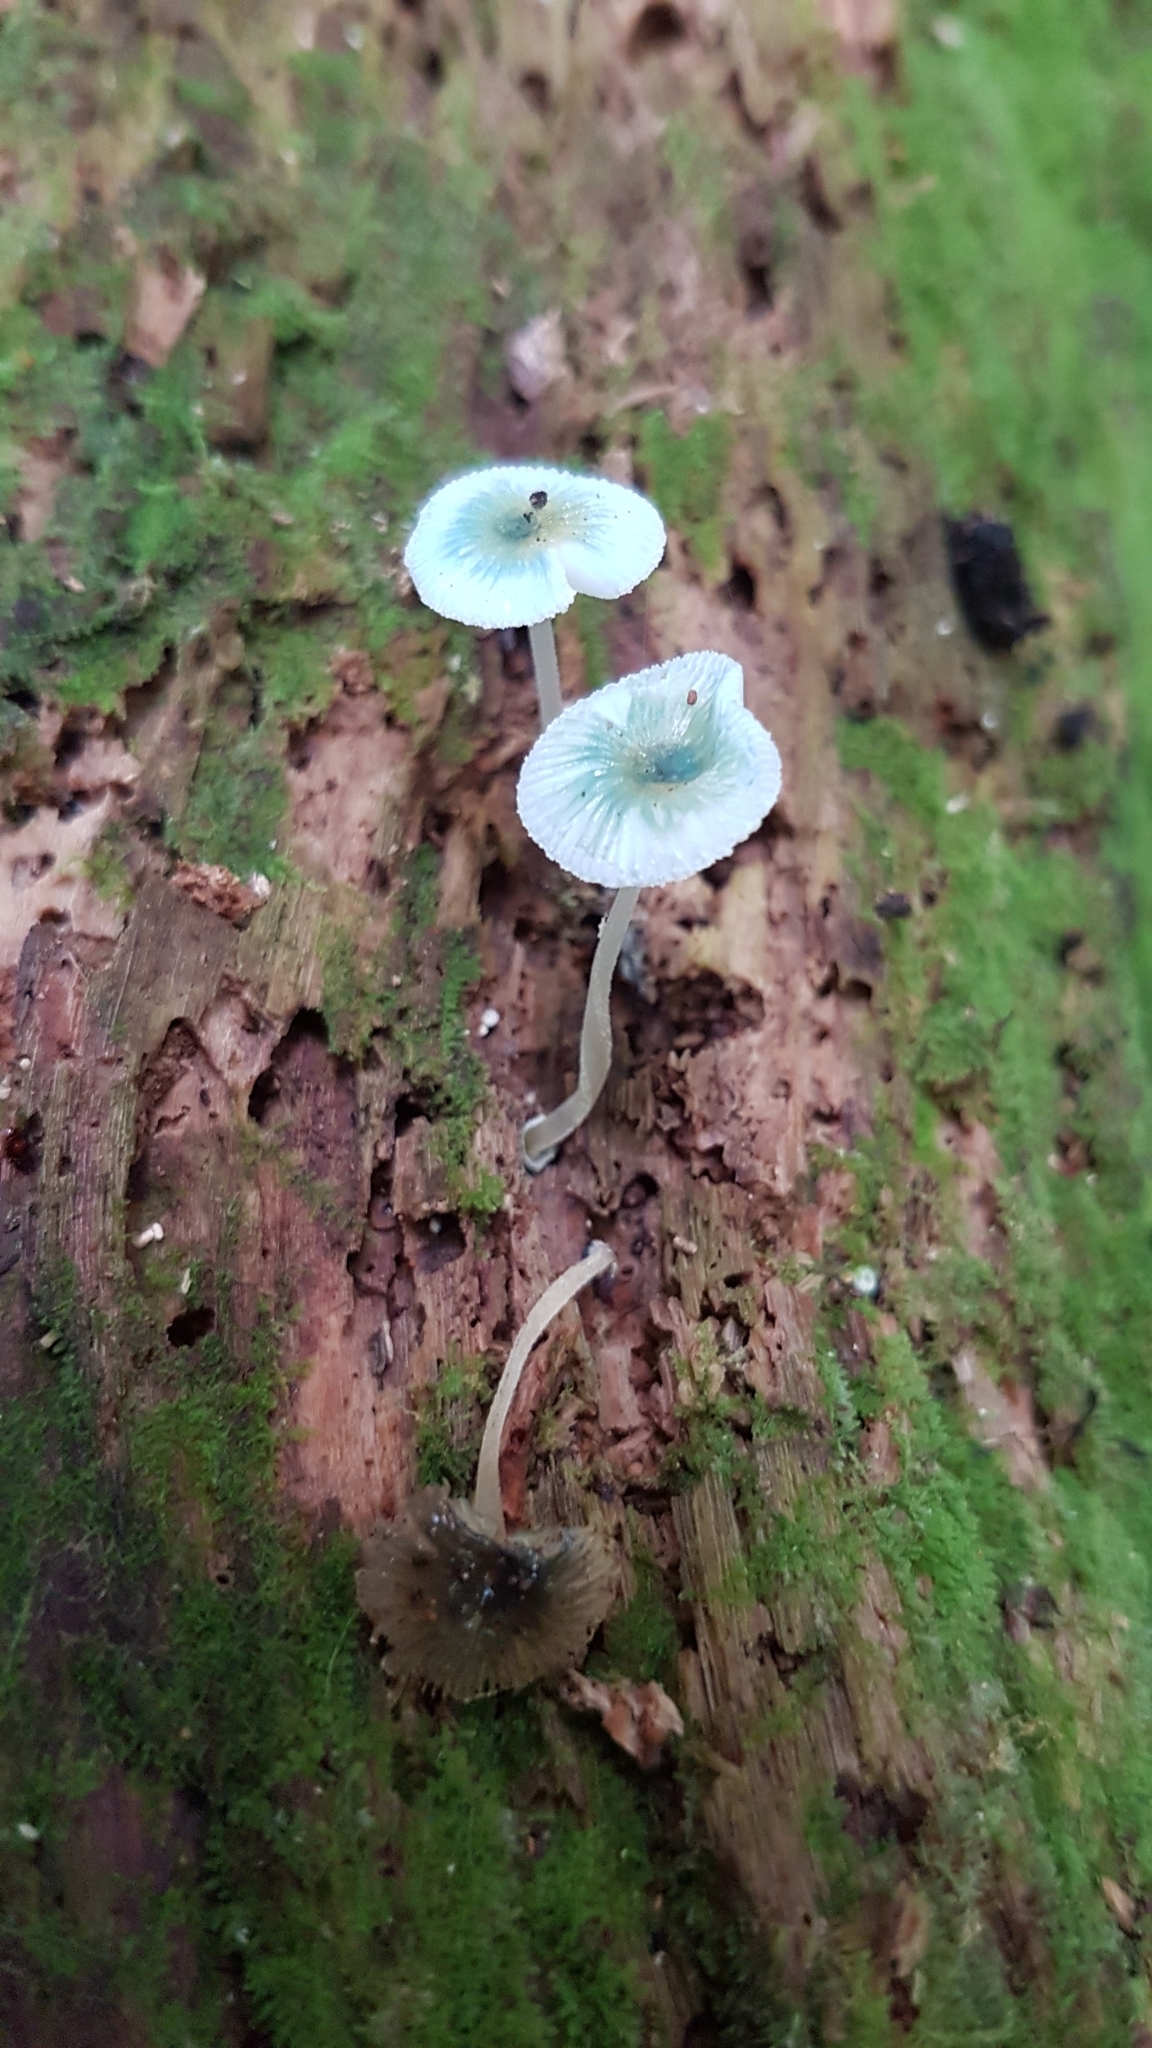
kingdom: Fungi
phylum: Basidiomycota
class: Agaricomycetes
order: Agaricales
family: Mycenaceae
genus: Mycena
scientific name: Mycena interrupta
